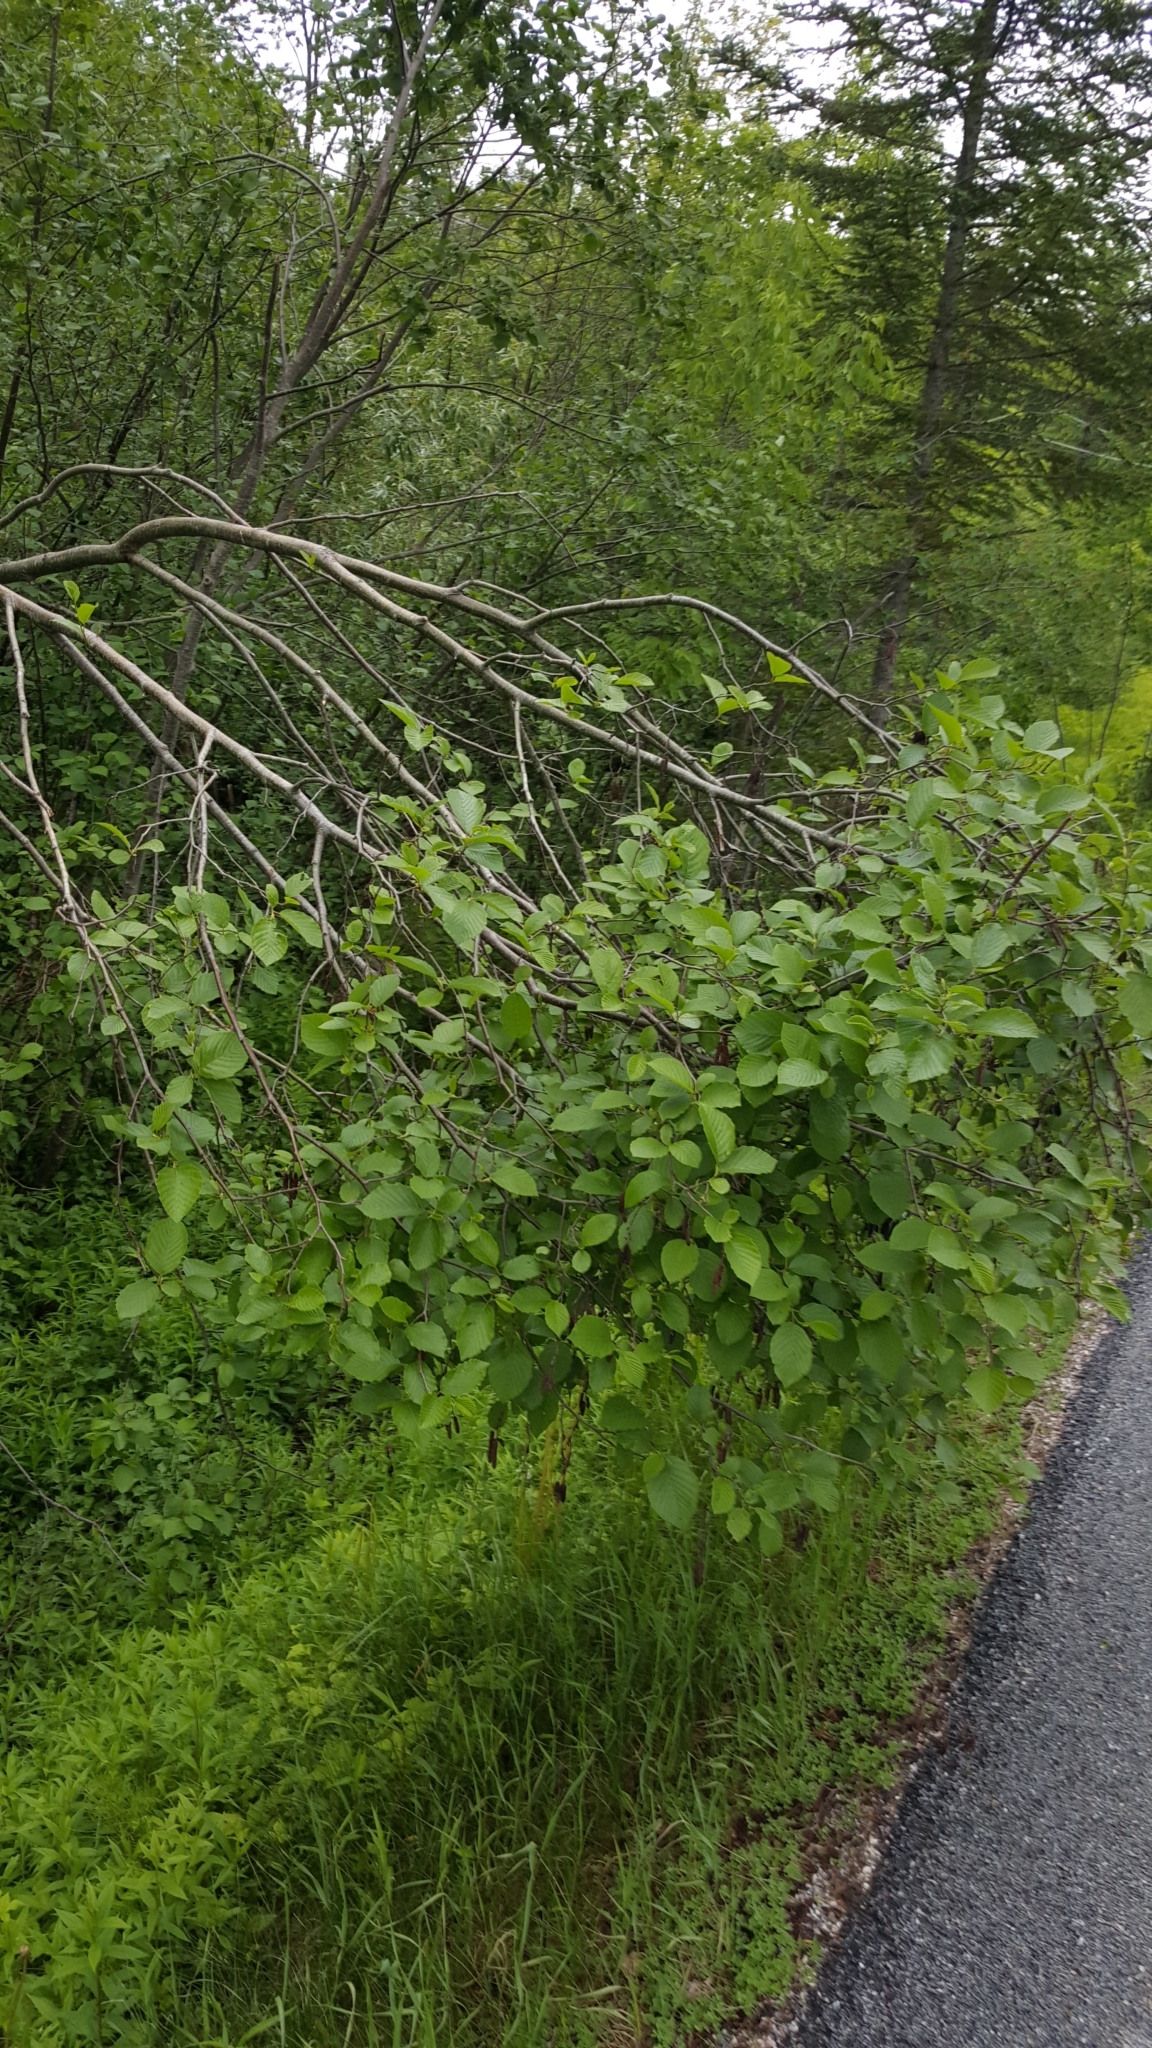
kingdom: Plantae
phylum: Tracheophyta
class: Magnoliopsida
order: Fagales
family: Betulaceae
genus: Alnus
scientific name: Alnus incana
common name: Grey alder
